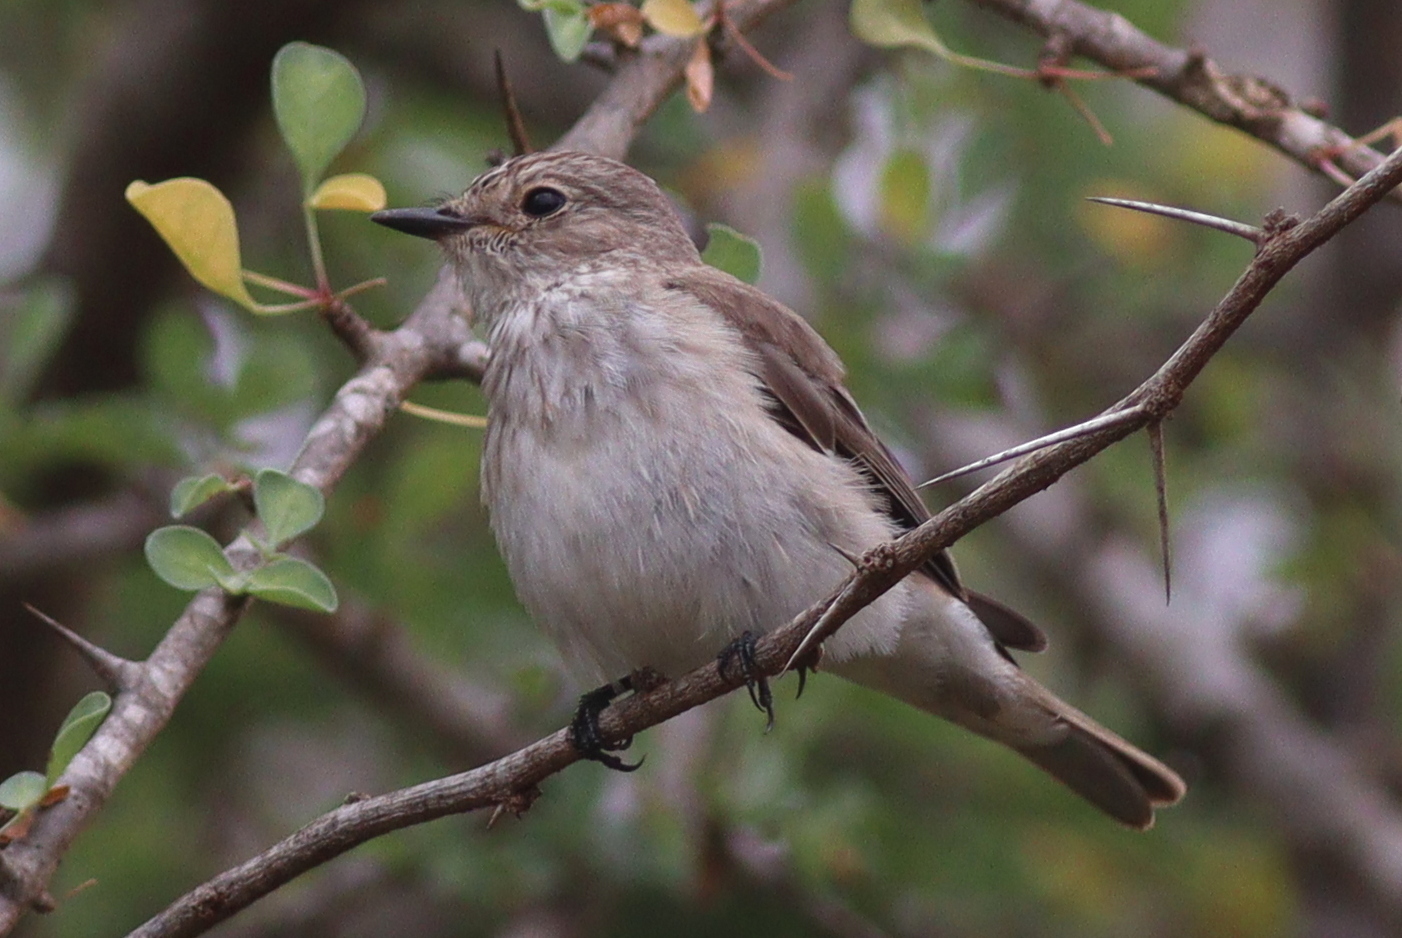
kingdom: Animalia
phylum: Chordata
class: Aves
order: Passeriformes
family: Muscicapidae
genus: Muscicapa
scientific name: Muscicapa striata
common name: Spotted flycatcher
